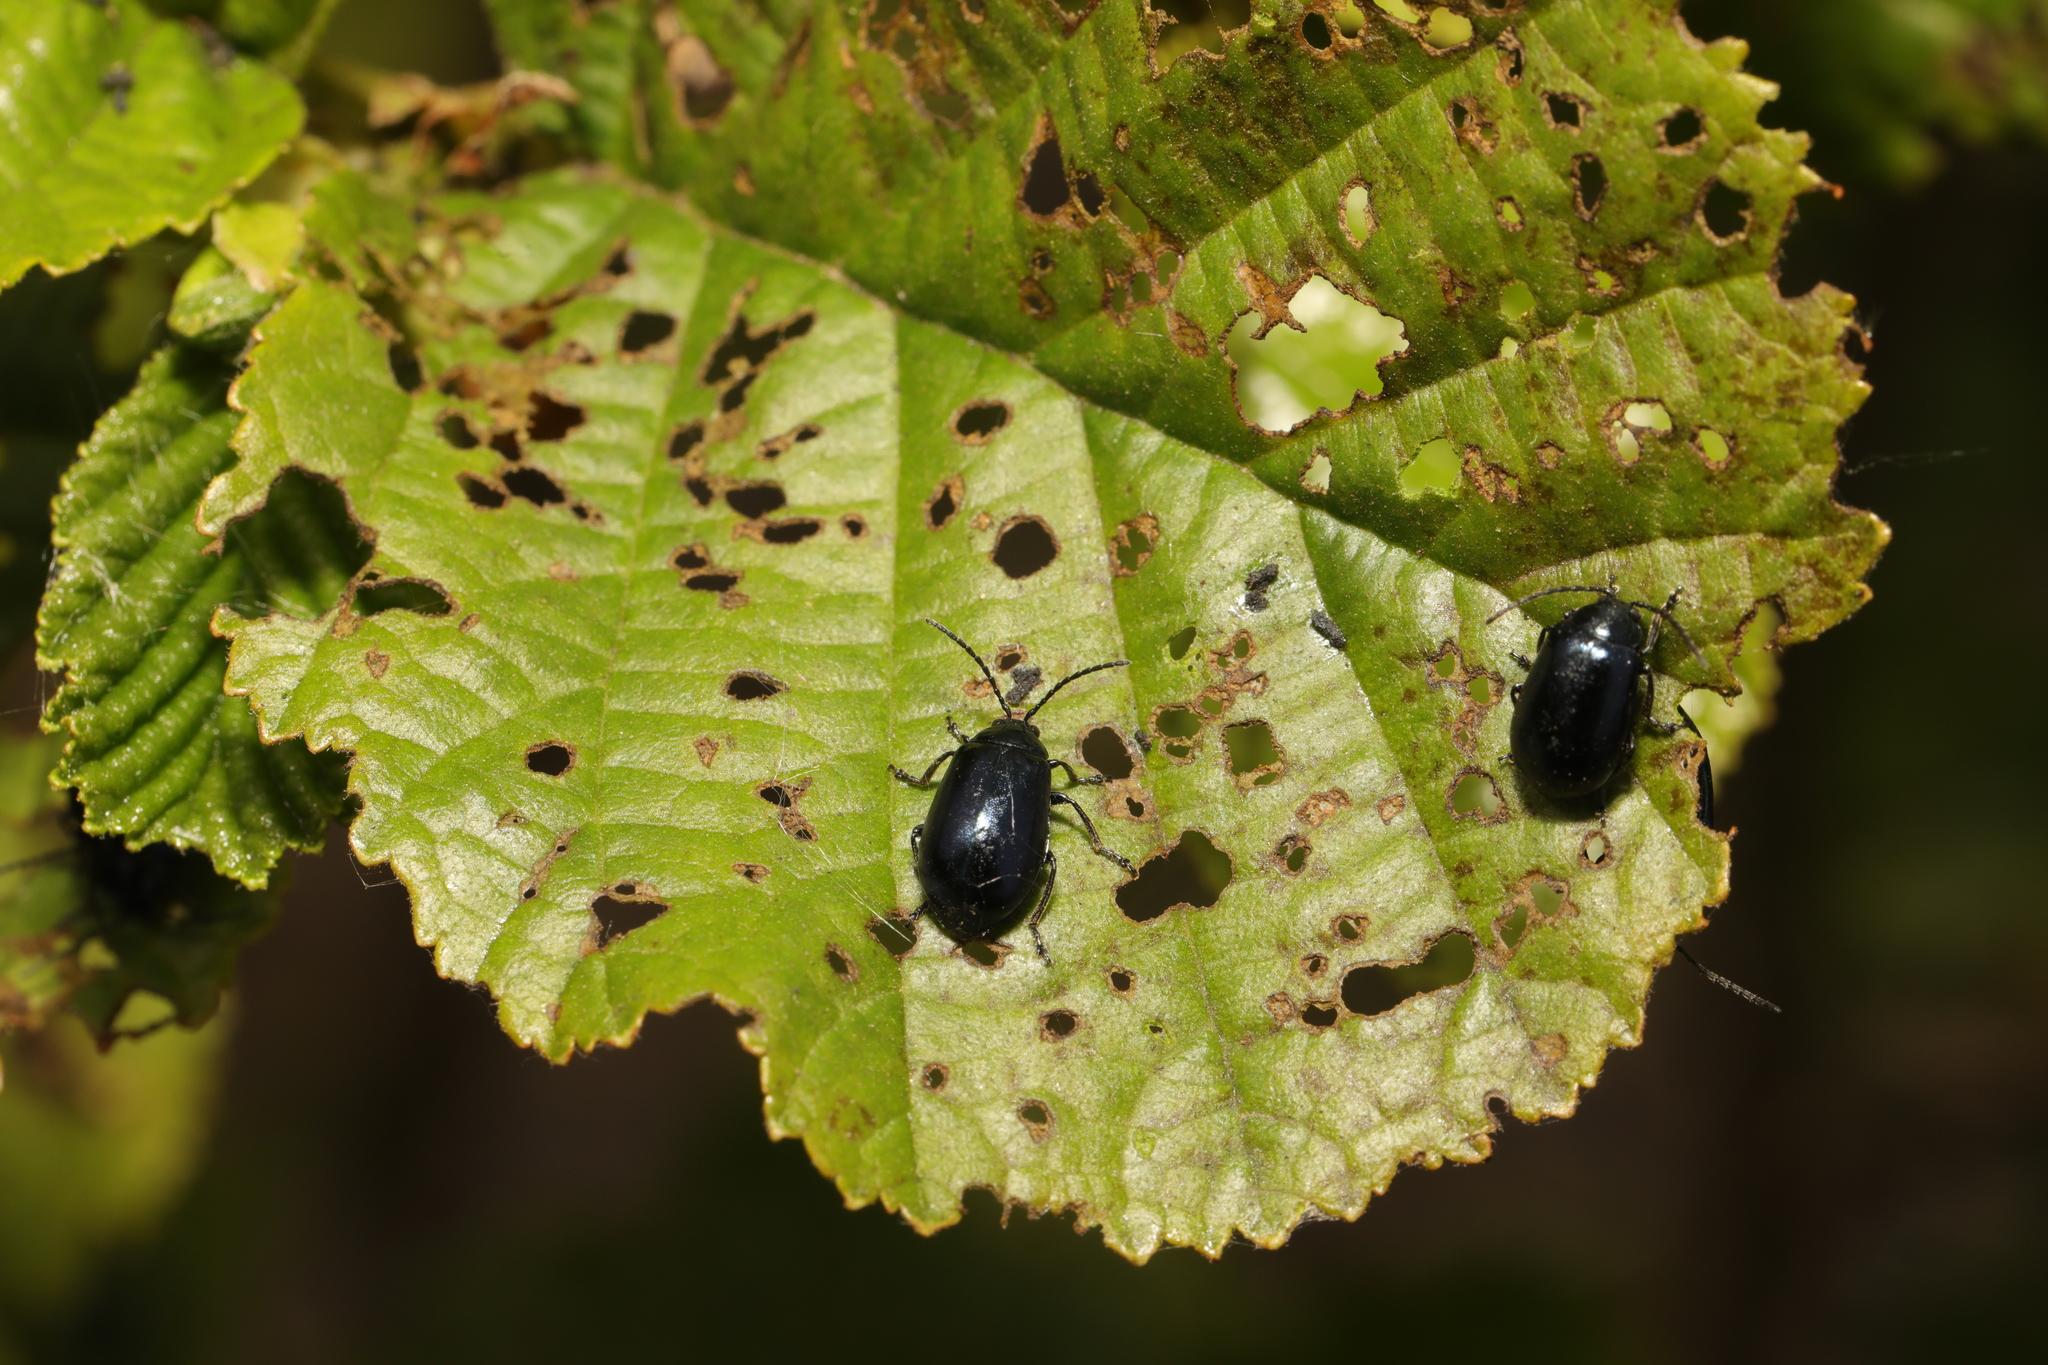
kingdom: Animalia
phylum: Arthropoda
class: Insecta
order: Coleoptera
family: Chrysomelidae
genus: Agelastica
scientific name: Agelastica alni
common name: Alder leaf beetle
